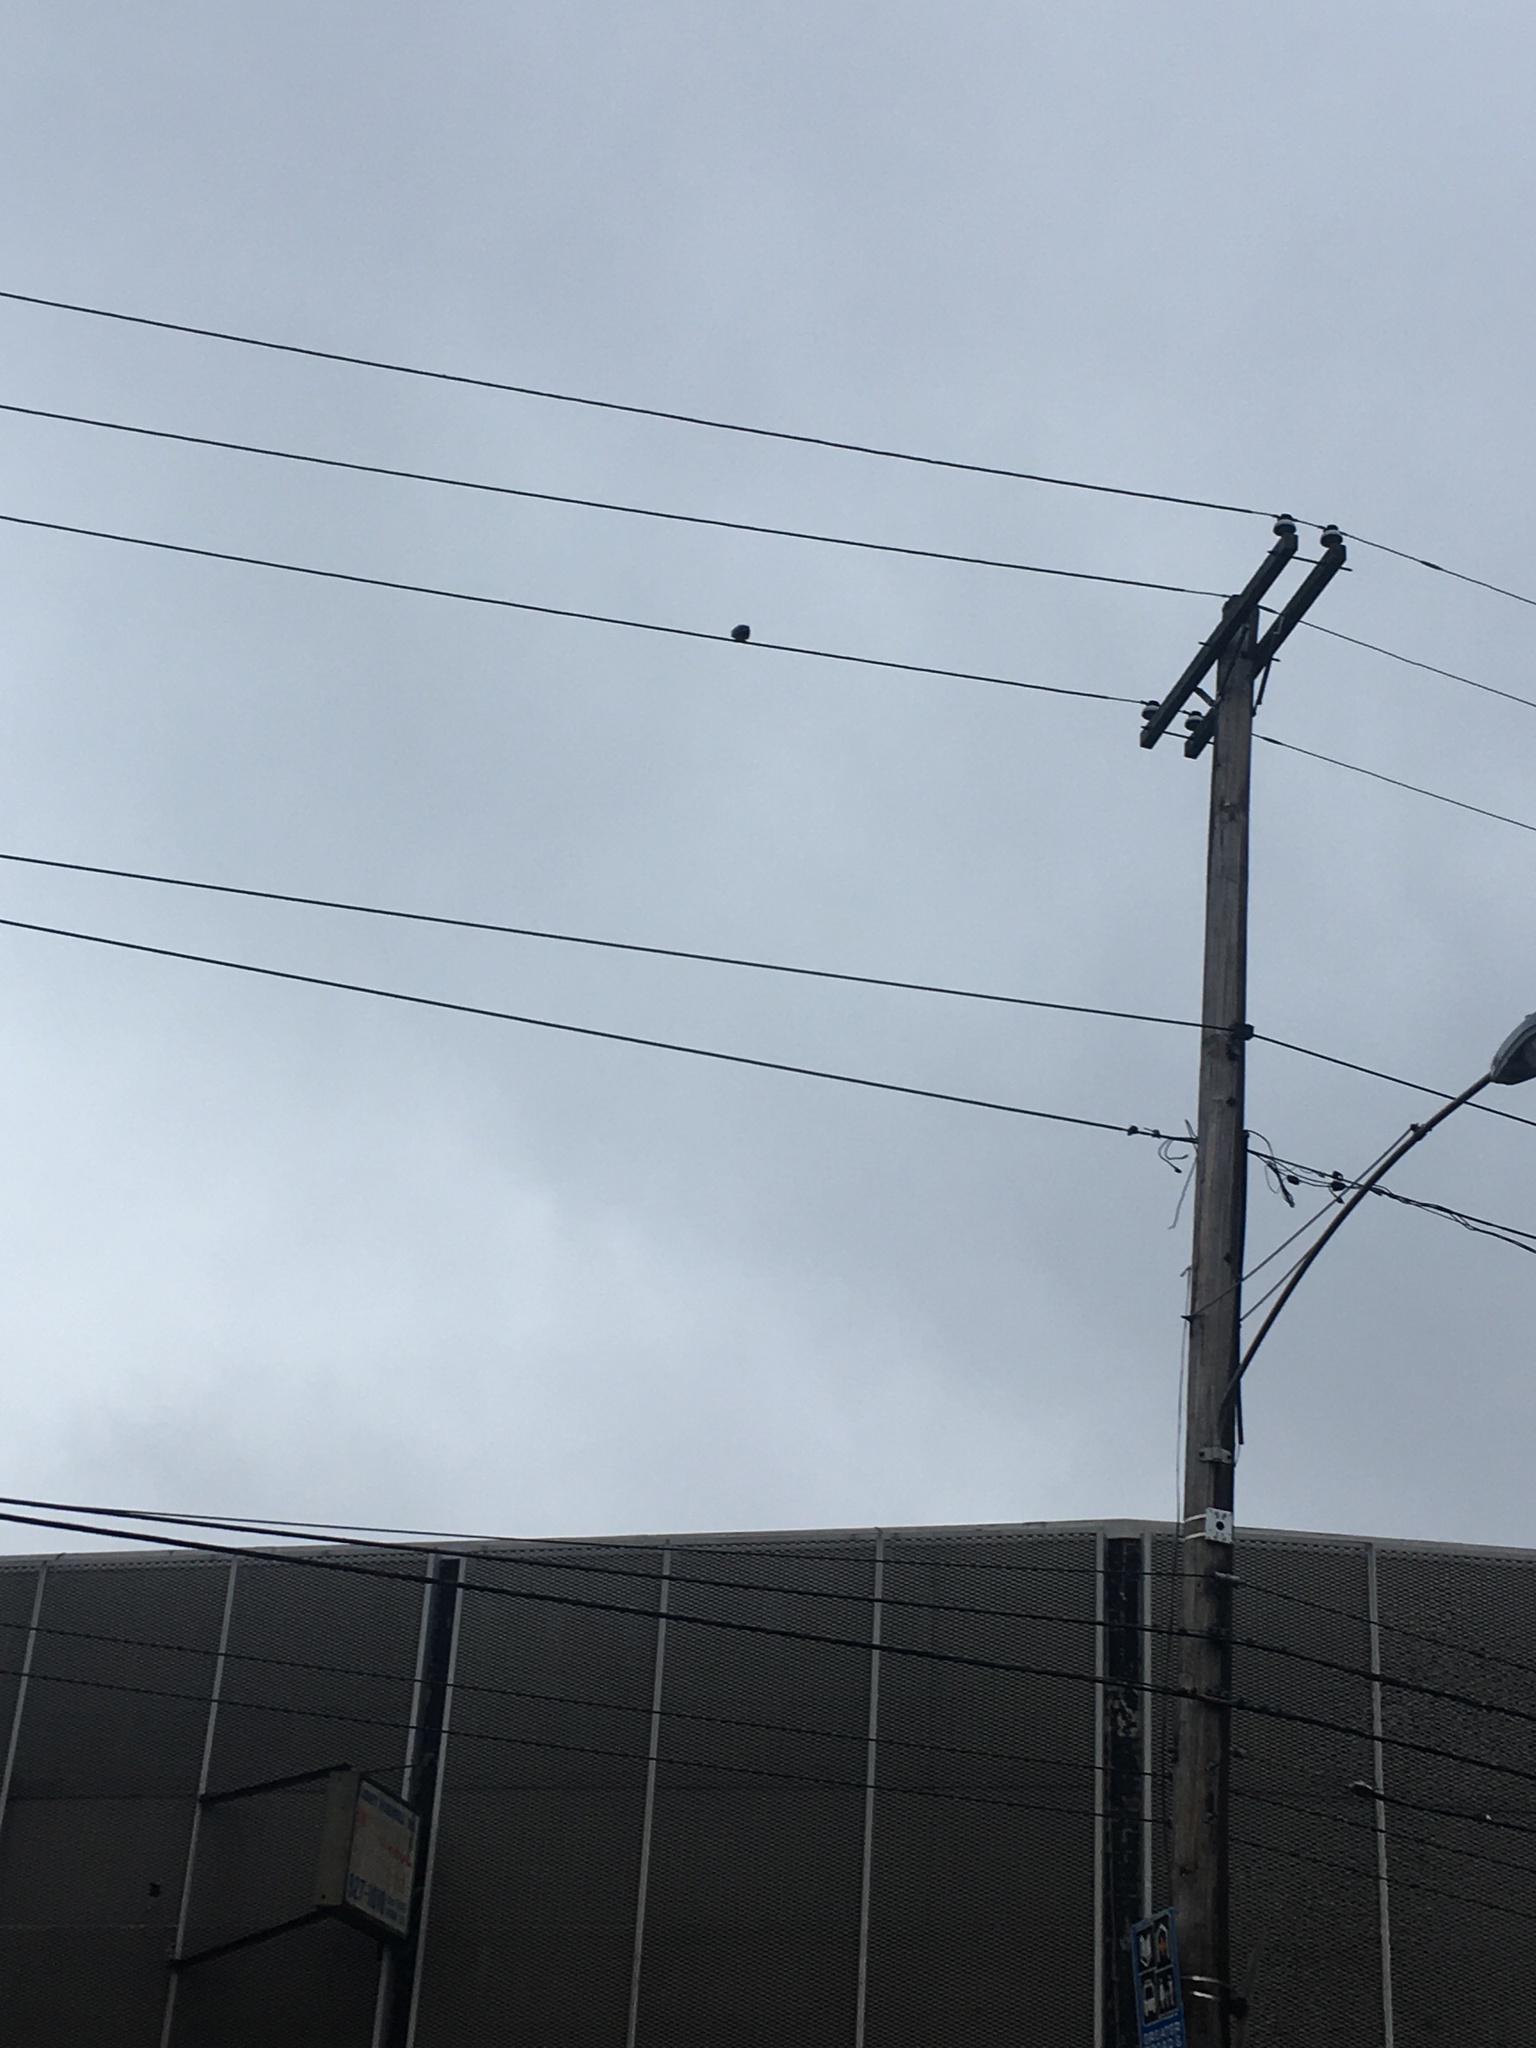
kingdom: Animalia
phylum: Chordata
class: Aves
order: Columbiformes
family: Columbidae
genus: Columba
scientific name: Columba livia
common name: Rock pigeon
